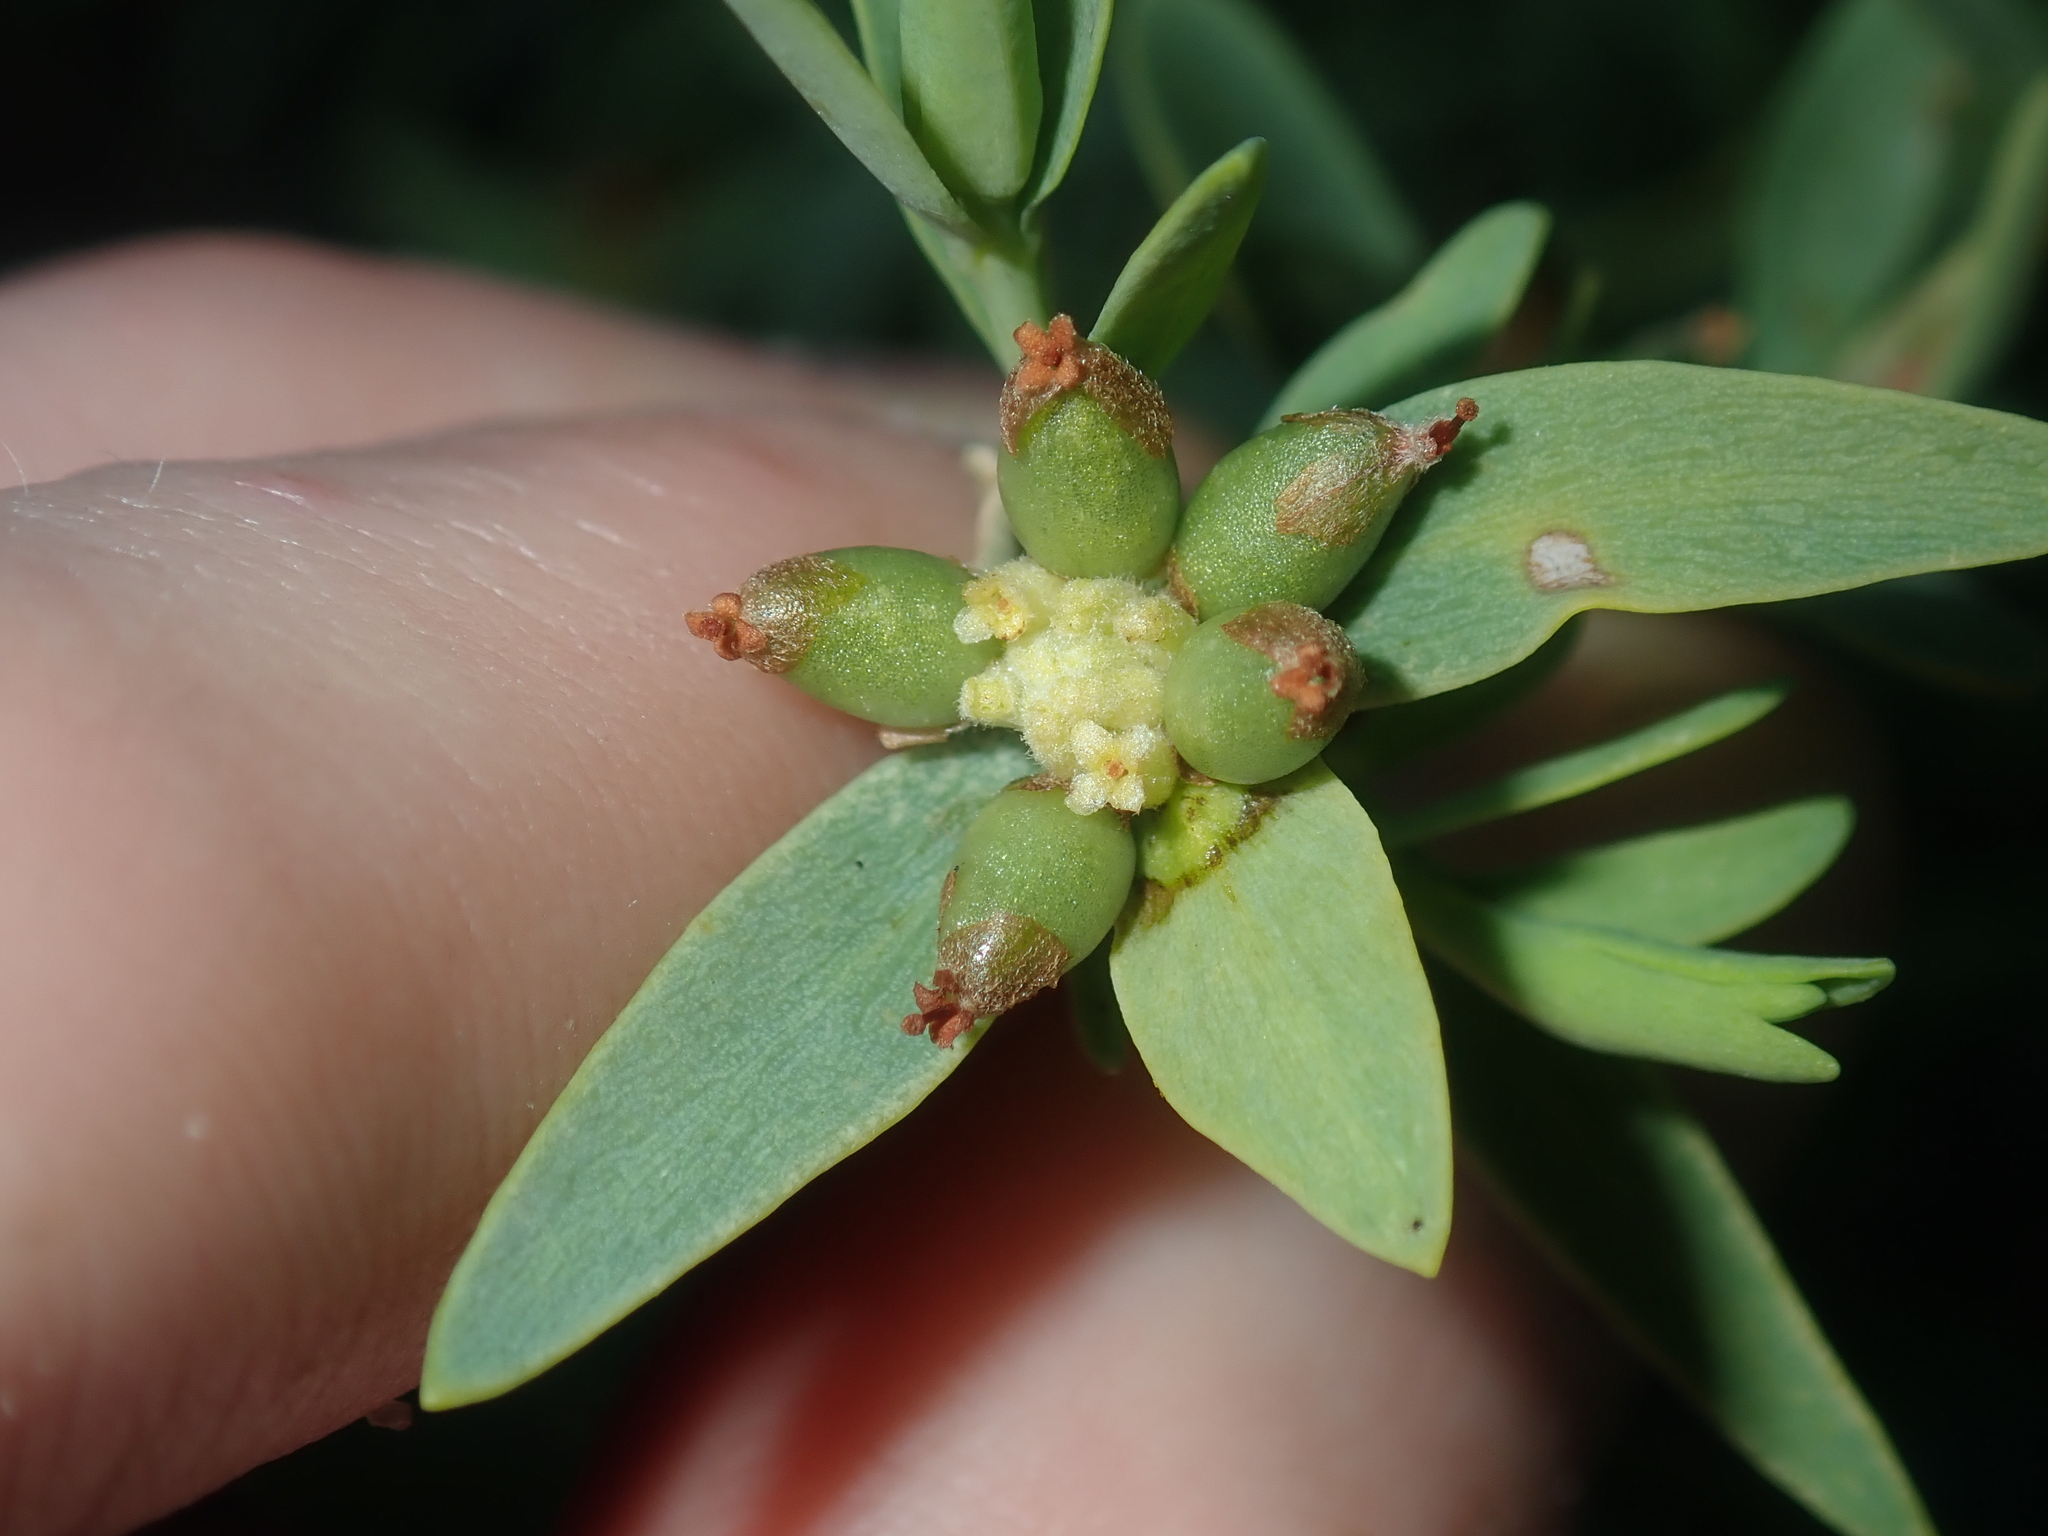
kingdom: Plantae
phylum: Tracheophyta
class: Magnoliopsida
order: Malvales
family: Thymelaeaceae
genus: Pimelea
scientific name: Pimelea microcephala
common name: Mallee riceflower
